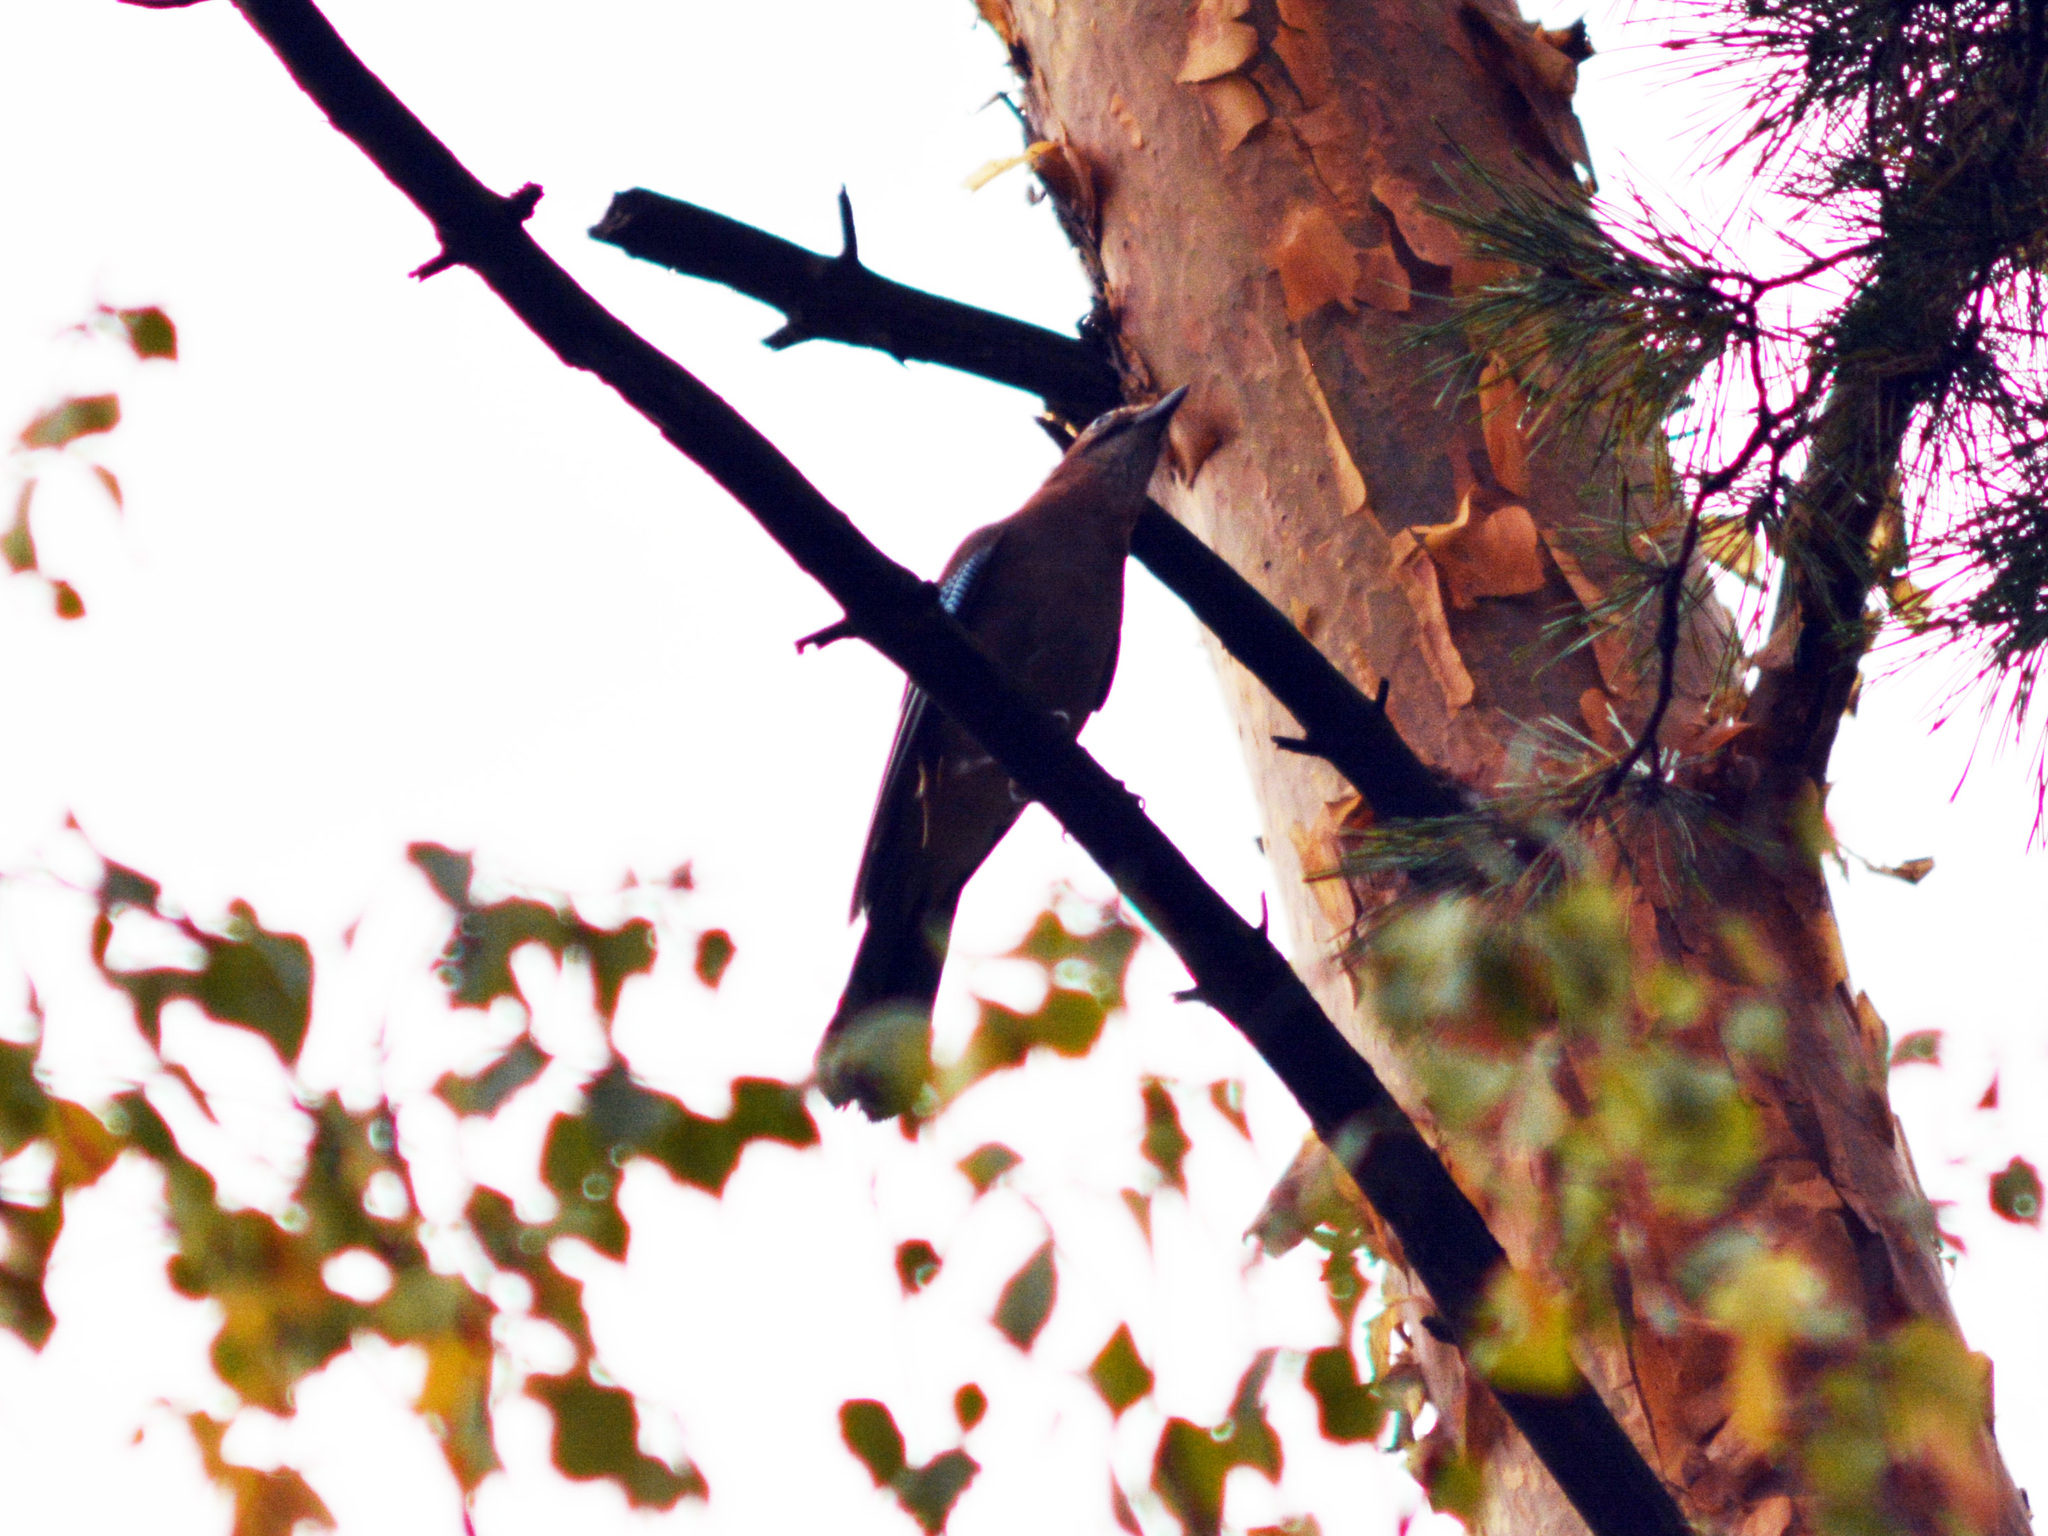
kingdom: Animalia
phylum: Chordata
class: Aves
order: Passeriformes
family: Corvidae
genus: Garrulus
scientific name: Garrulus glandarius
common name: Eurasian jay
